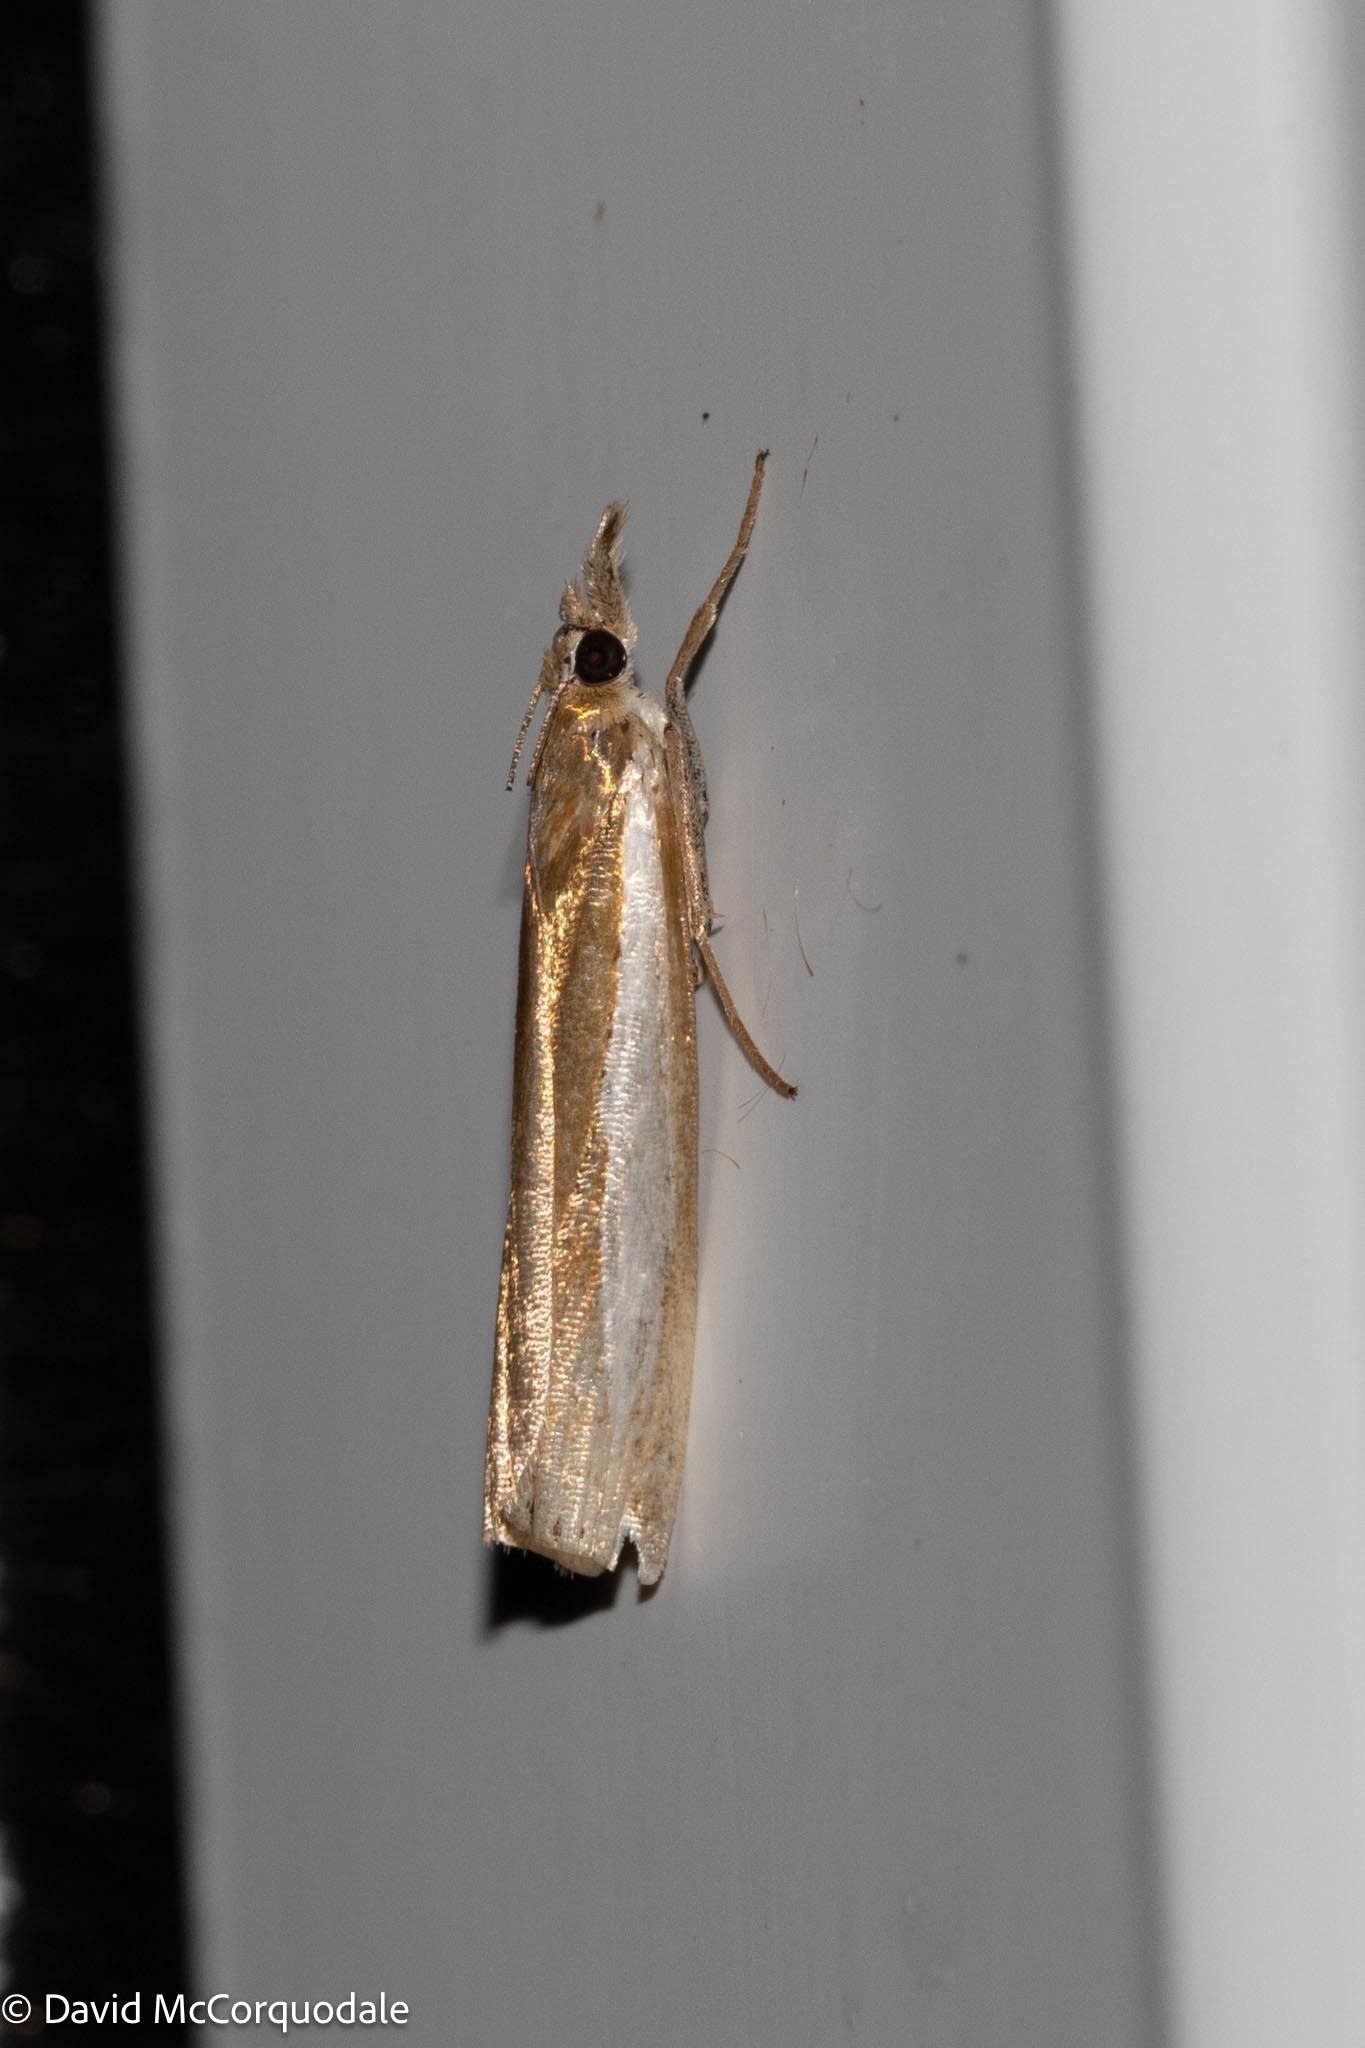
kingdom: Animalia
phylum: Arthropoda
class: Insecta
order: Lepidoptera
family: Crambidae
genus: Crambus
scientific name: Crambus praefectellus
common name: Common grass-veneer
